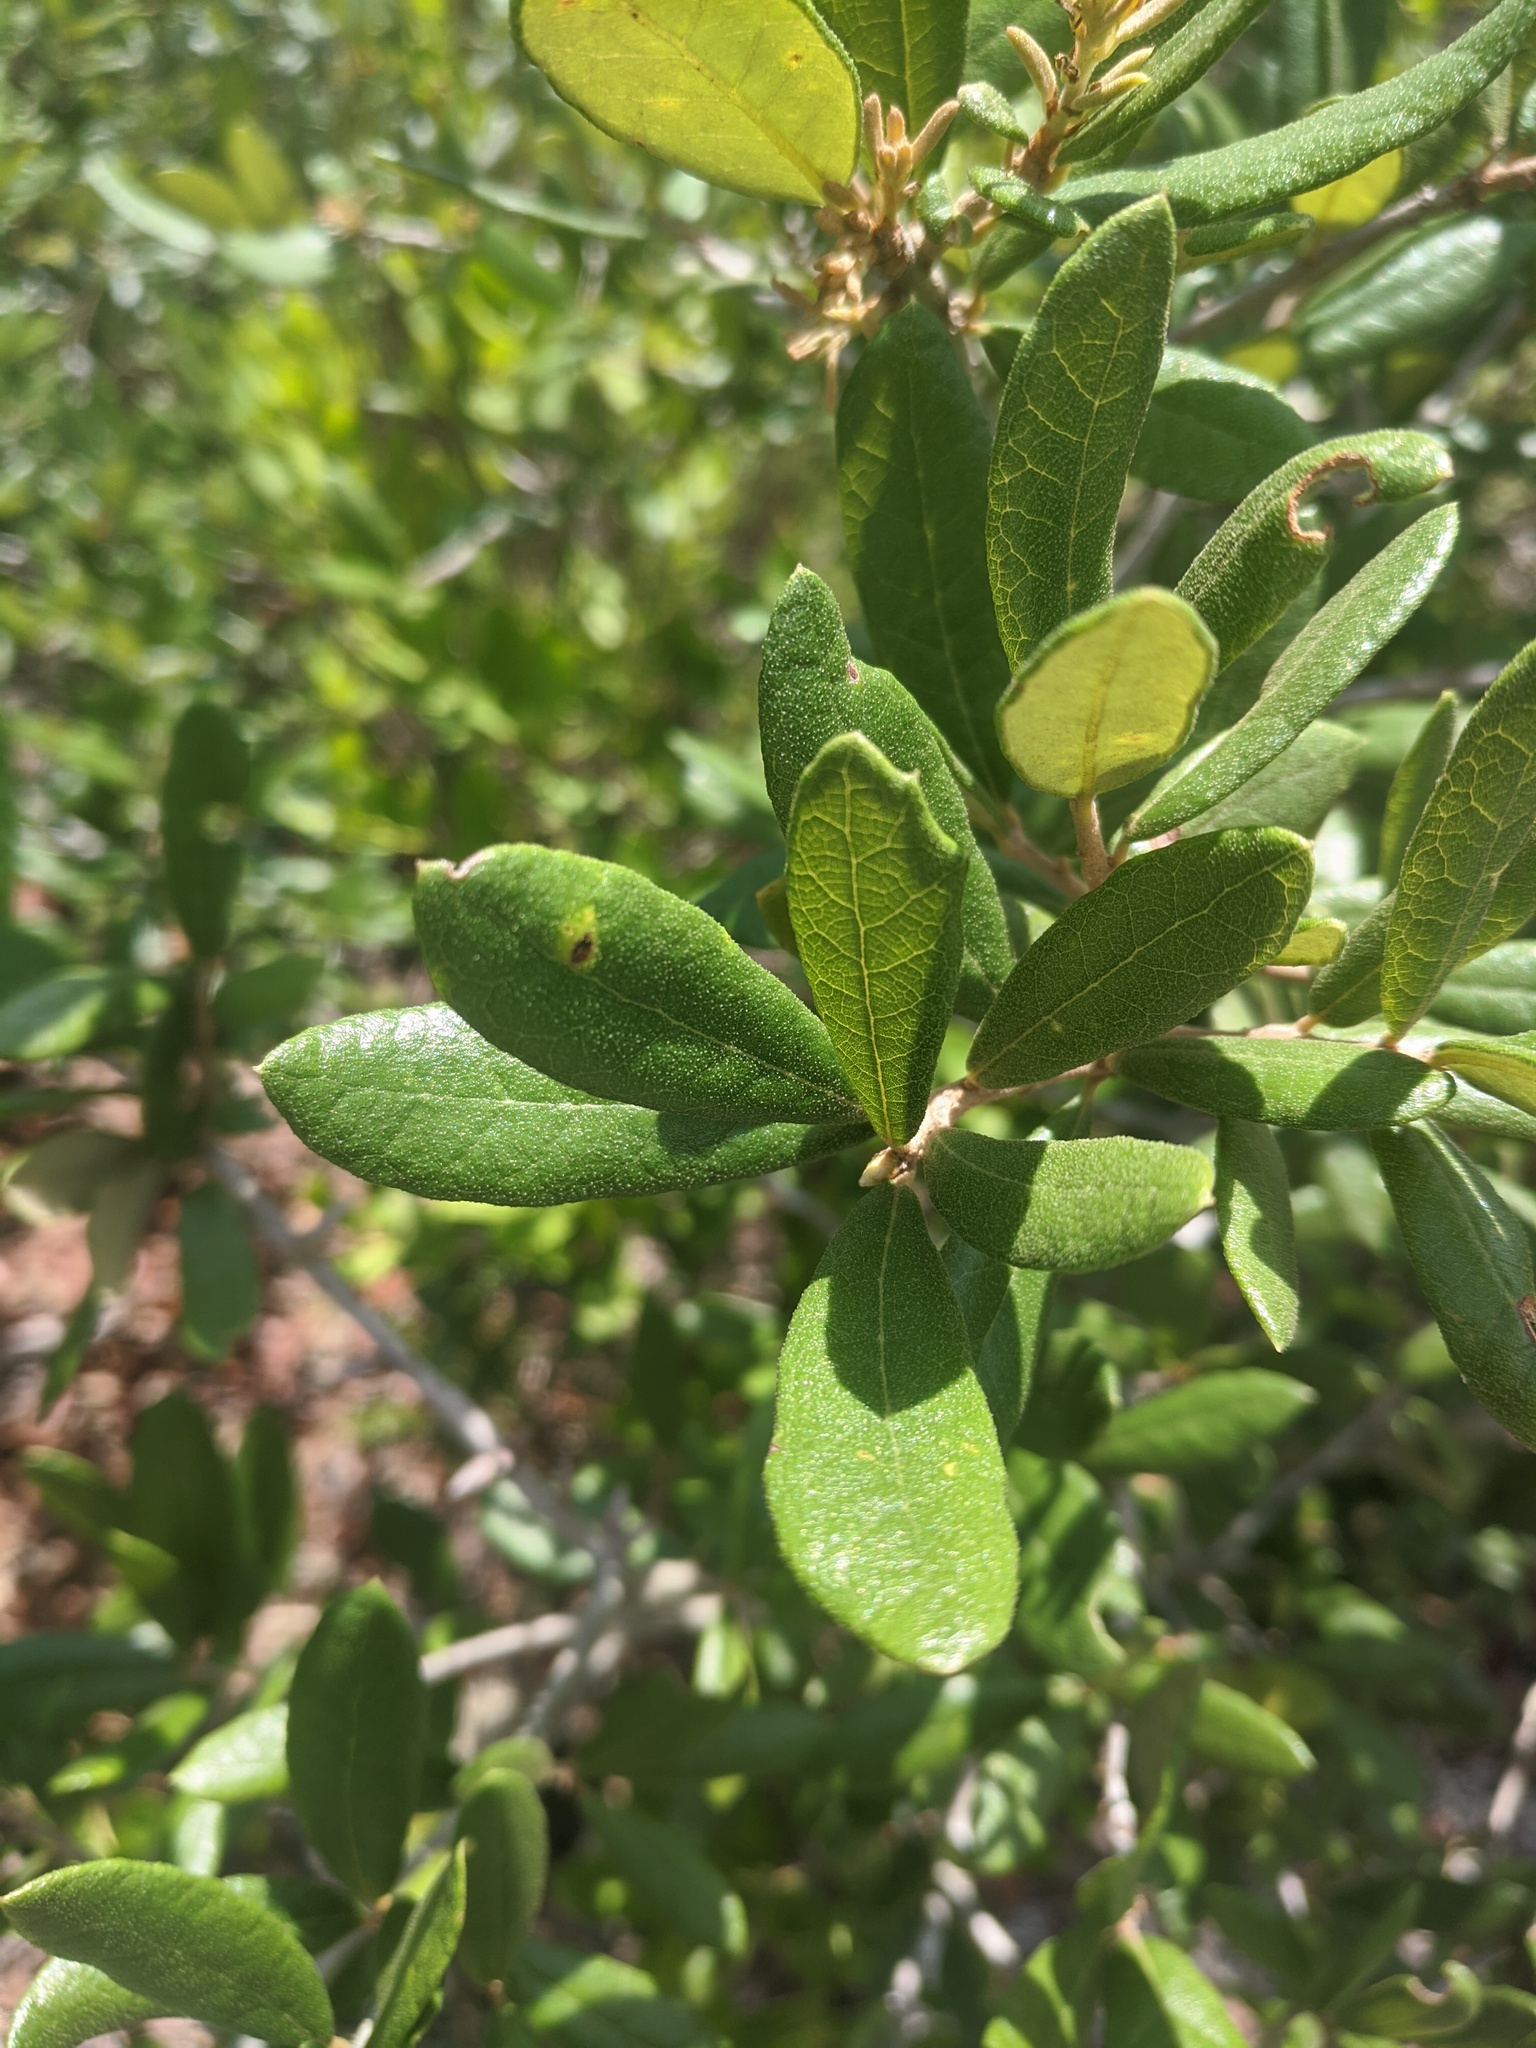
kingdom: Plantae
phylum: Tracheophyta
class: Magnoliopsida
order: Fagales
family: Fagaceae
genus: Quercus
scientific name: Quercus geminata
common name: Sand live oak
